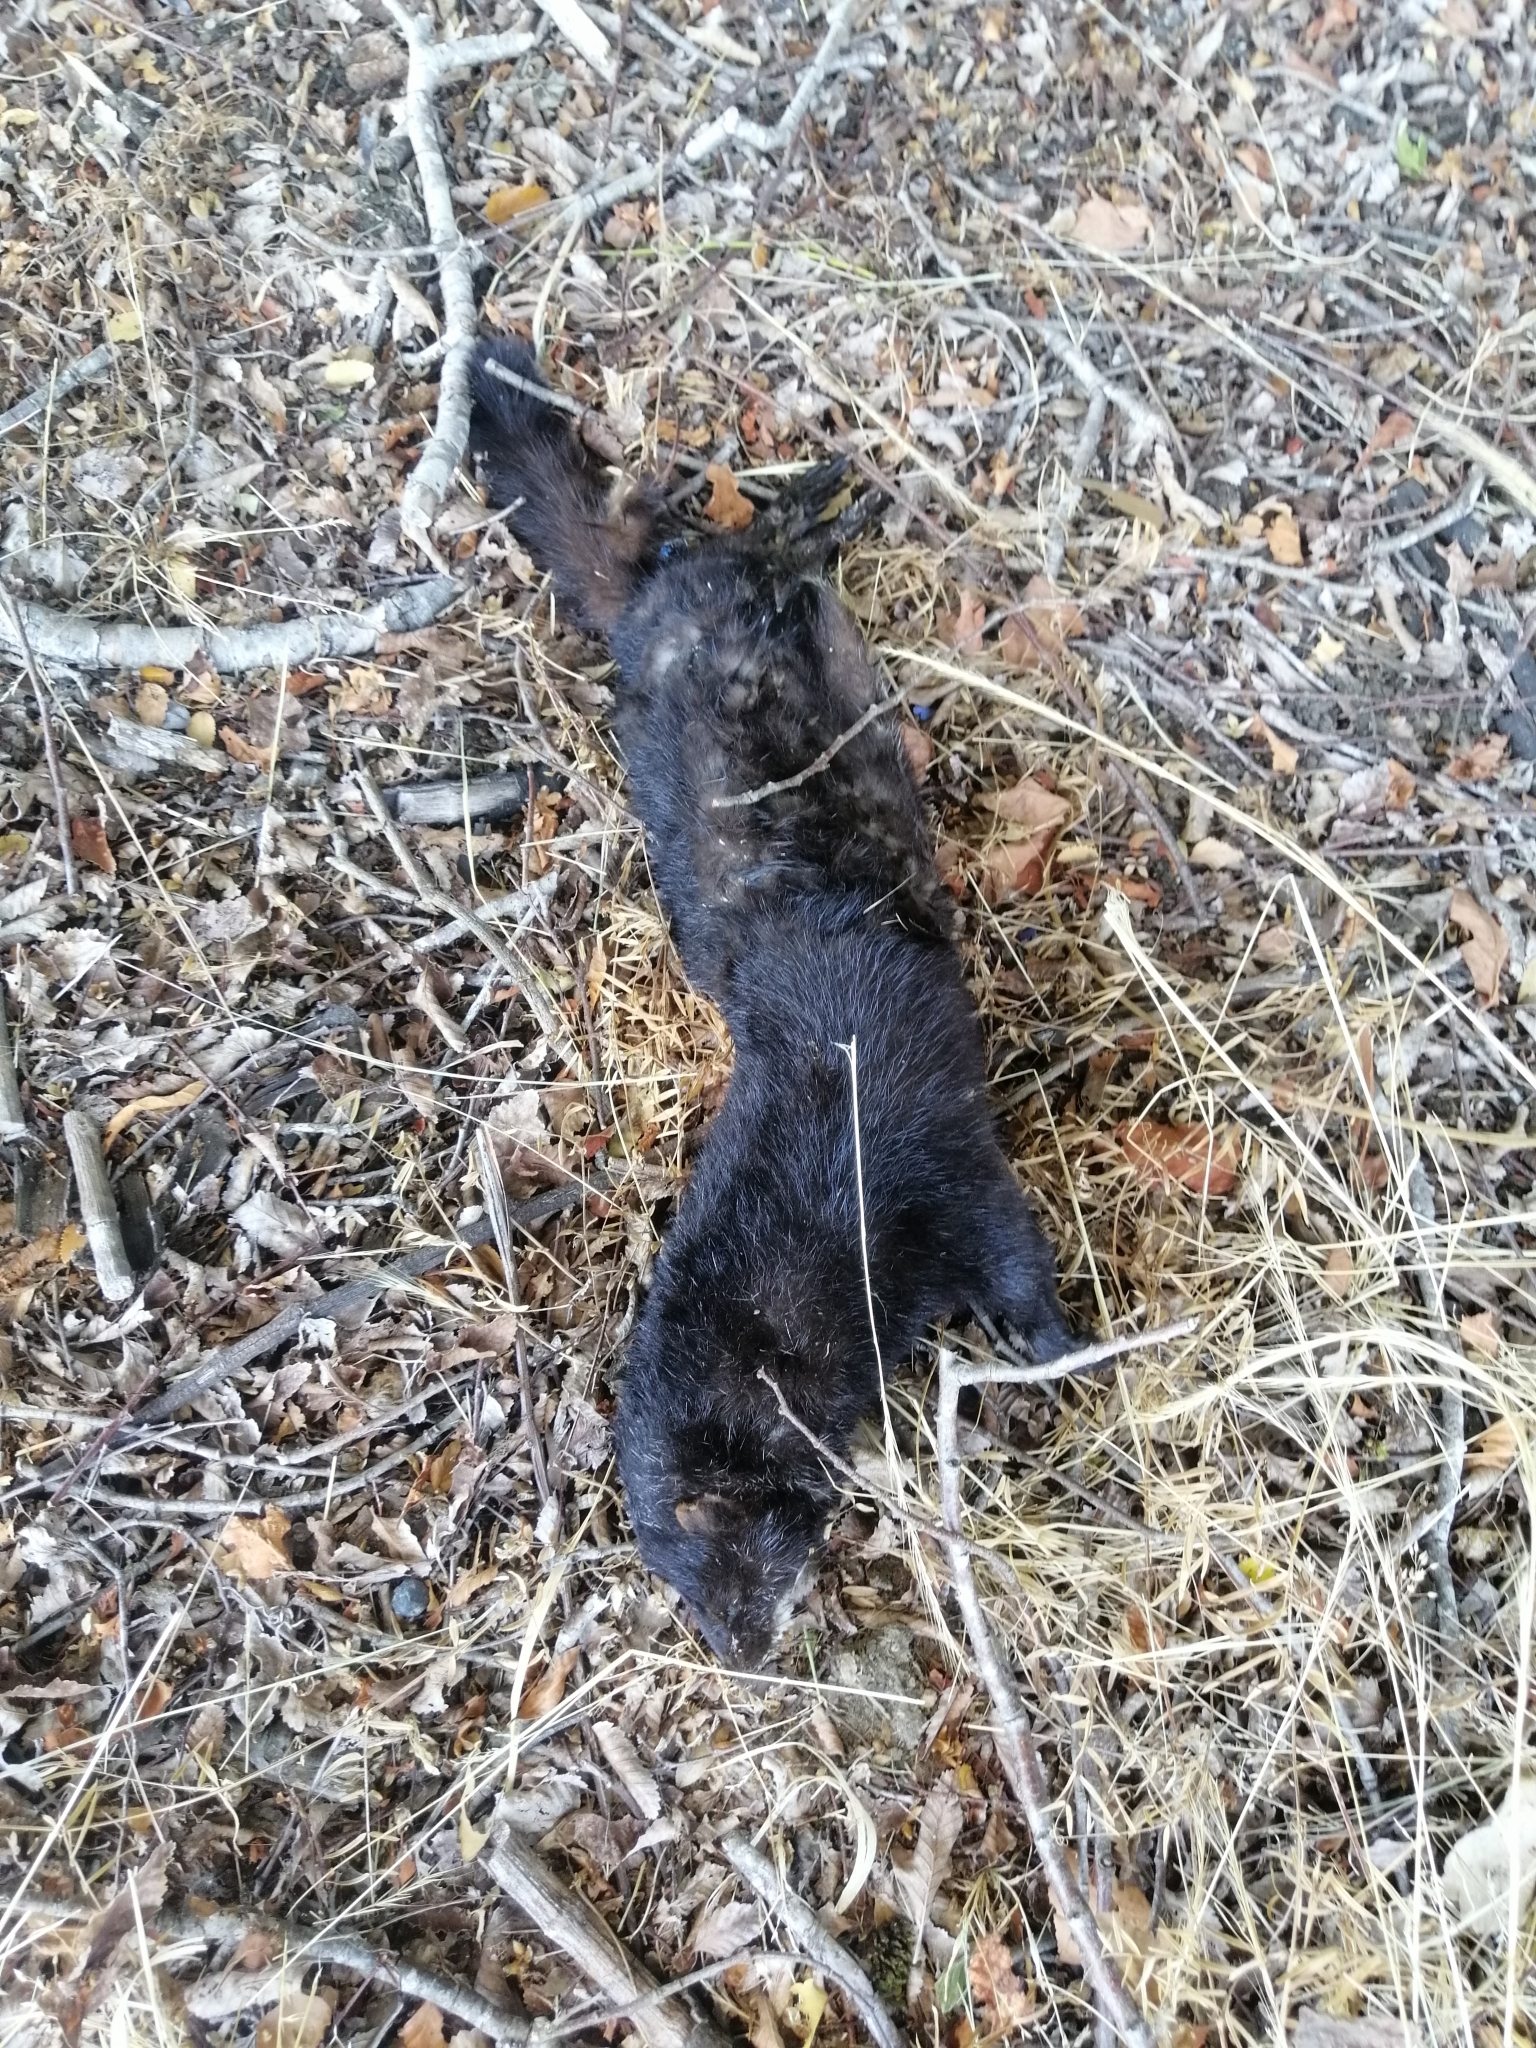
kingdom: Animalia
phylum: Chordata
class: Mammalia
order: Carnivora
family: Mustelidae
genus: Mustela
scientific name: Mustela
